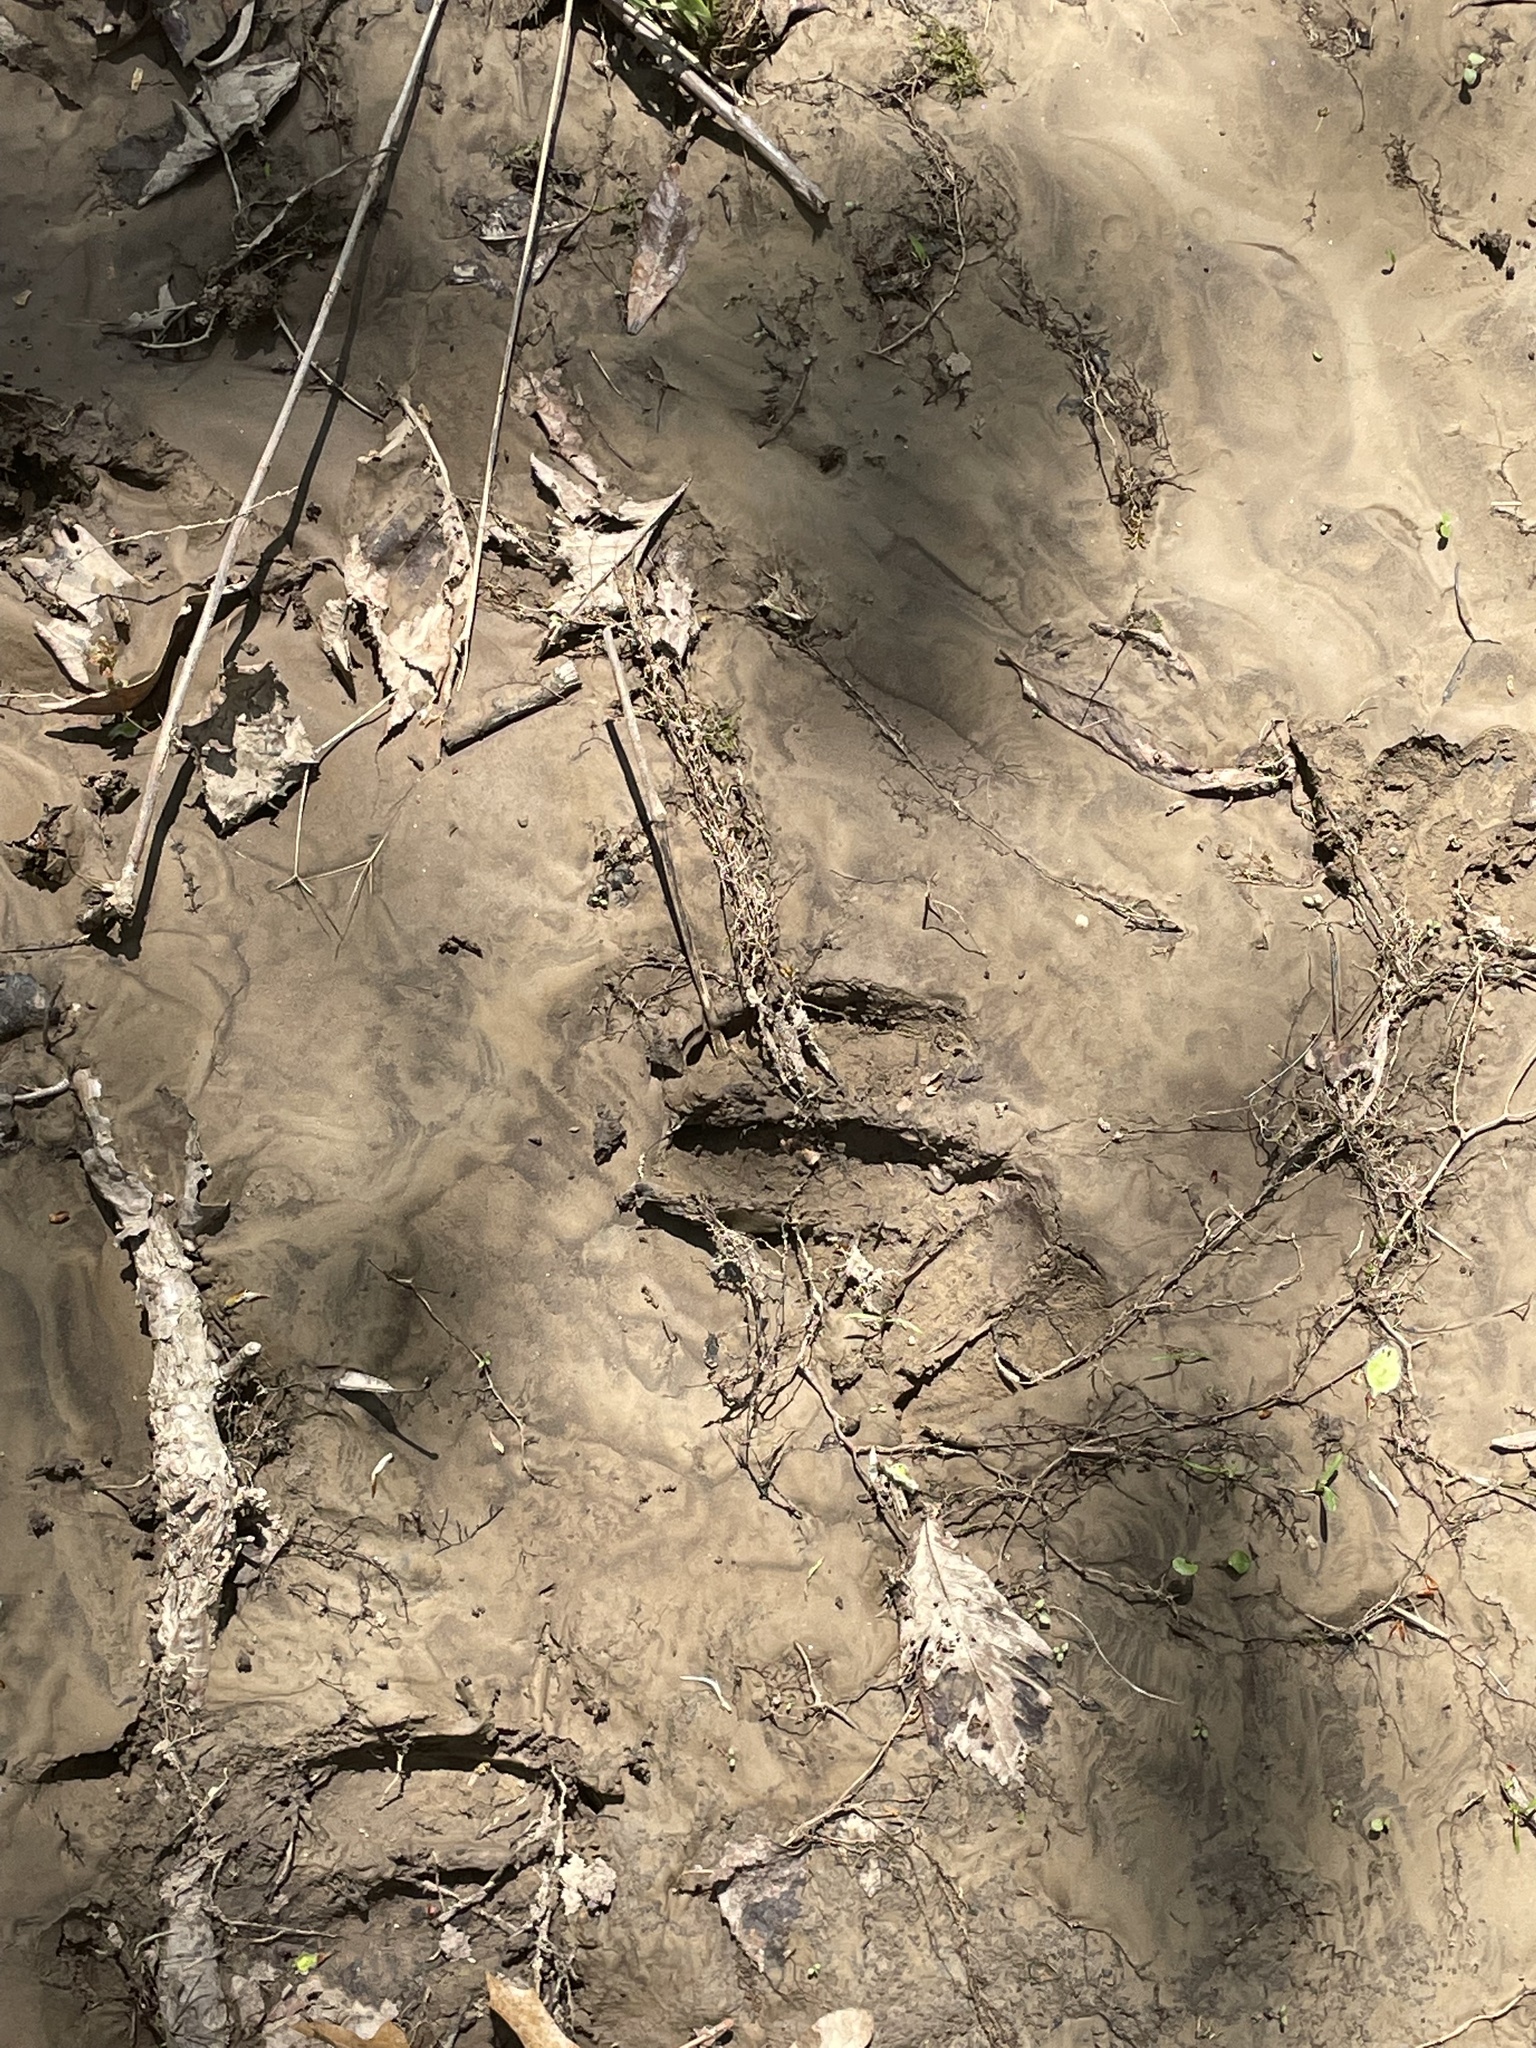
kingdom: Animalia
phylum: Chordata
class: Mammalia
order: Artiodactyla
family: Cervidae
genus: Odocoileus
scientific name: Odocoileus virginianus
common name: White-tailed deer
